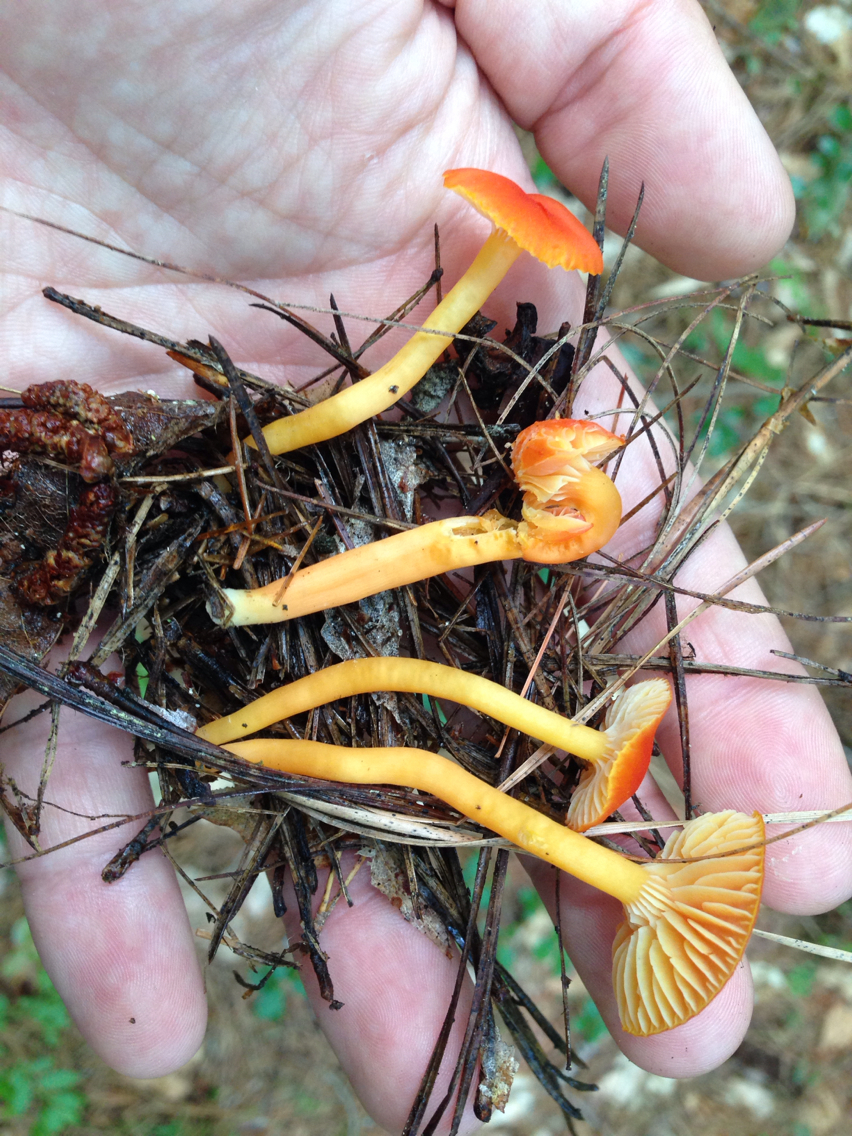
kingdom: Fungi
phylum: Basidiomycota
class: Agaricomycetes
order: Agaricales
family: Hygrophoraceae
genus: Hygrocybe
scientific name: Hygrocybe miniata
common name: Vermilion waxcap
